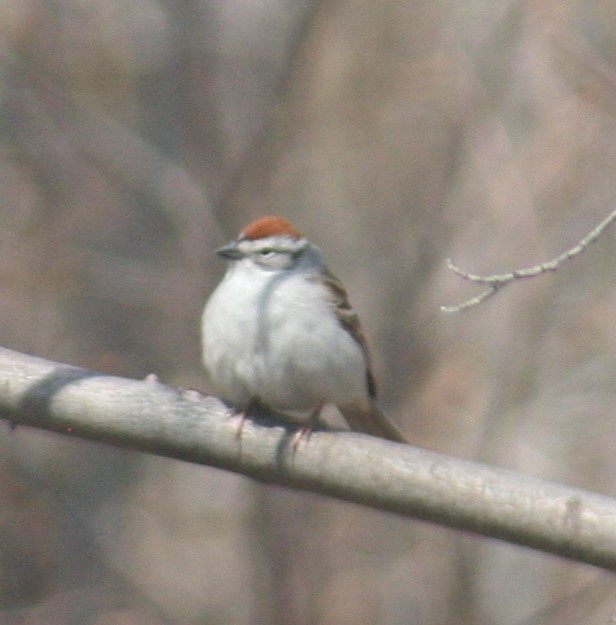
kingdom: Animalia
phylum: Chordata
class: Aves
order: Passeriformes
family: Passerellidae
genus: Spizella
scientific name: Spizella passerina
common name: Chipping sparrow
